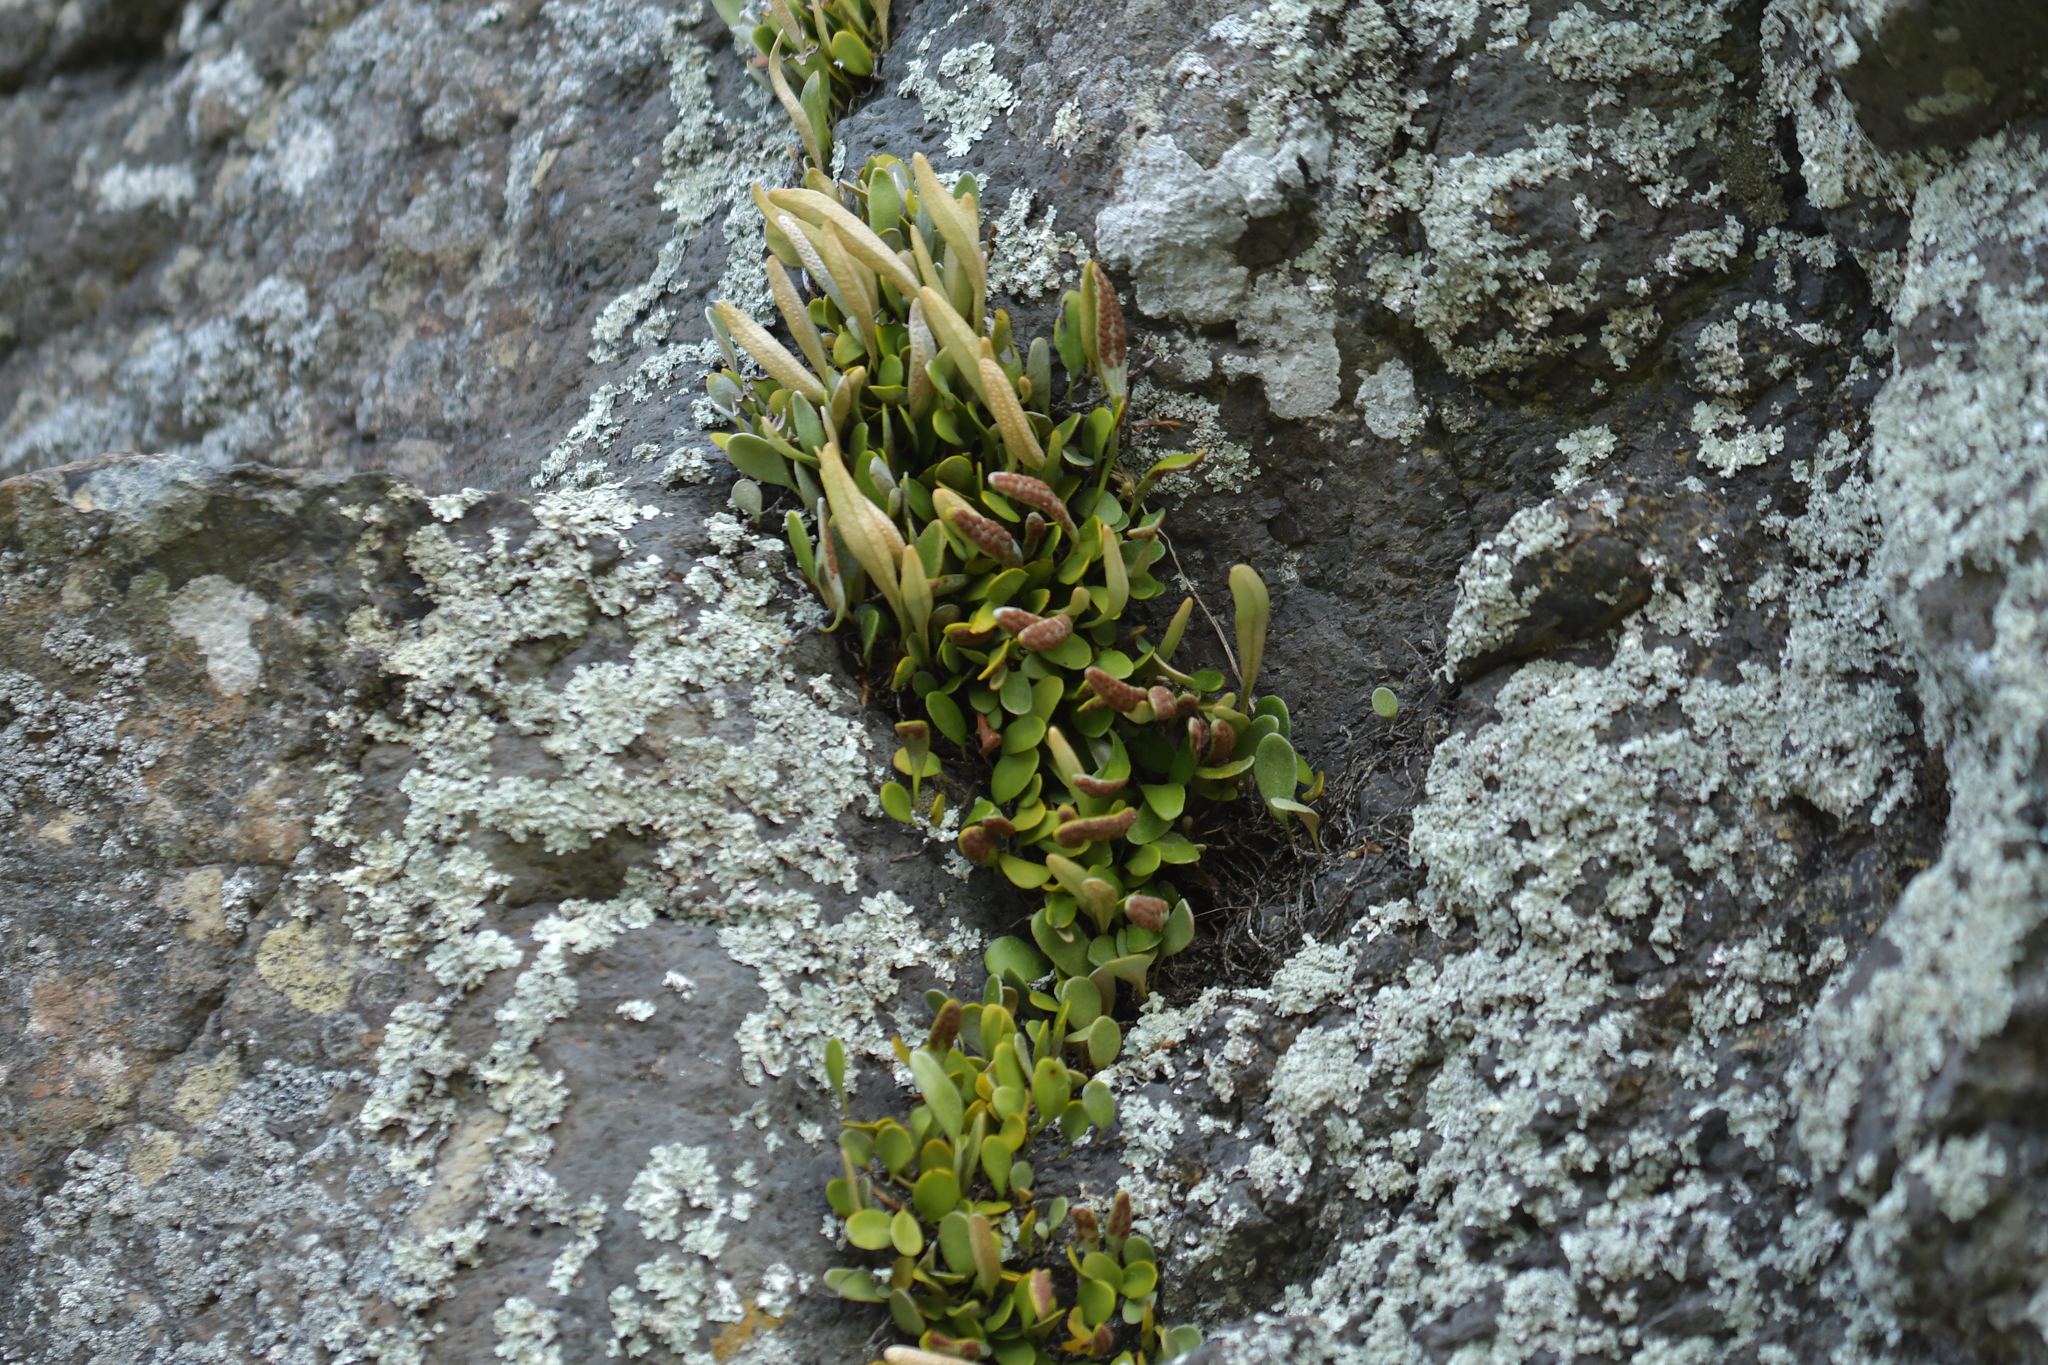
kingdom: Plantae
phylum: Tracheophyta
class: Polypodiopsida
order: Polypodiales
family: Polypodiaceae
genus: Pyrrosia
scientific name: Pyrrosia eleagnifolia
